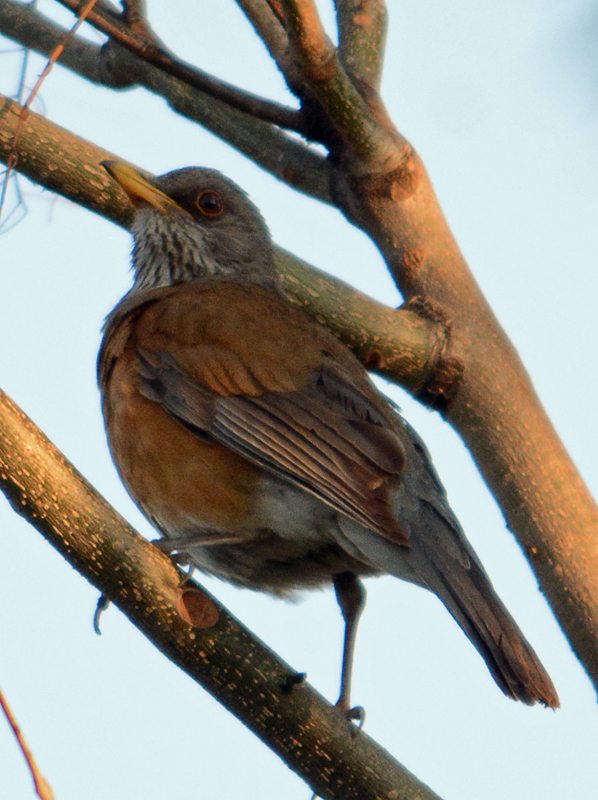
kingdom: Animalia
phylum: Chordata
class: Aves
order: Passeriformes
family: Turdidae
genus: Turdus
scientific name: Turdus rufopalliatus
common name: Rufous-backed robin
